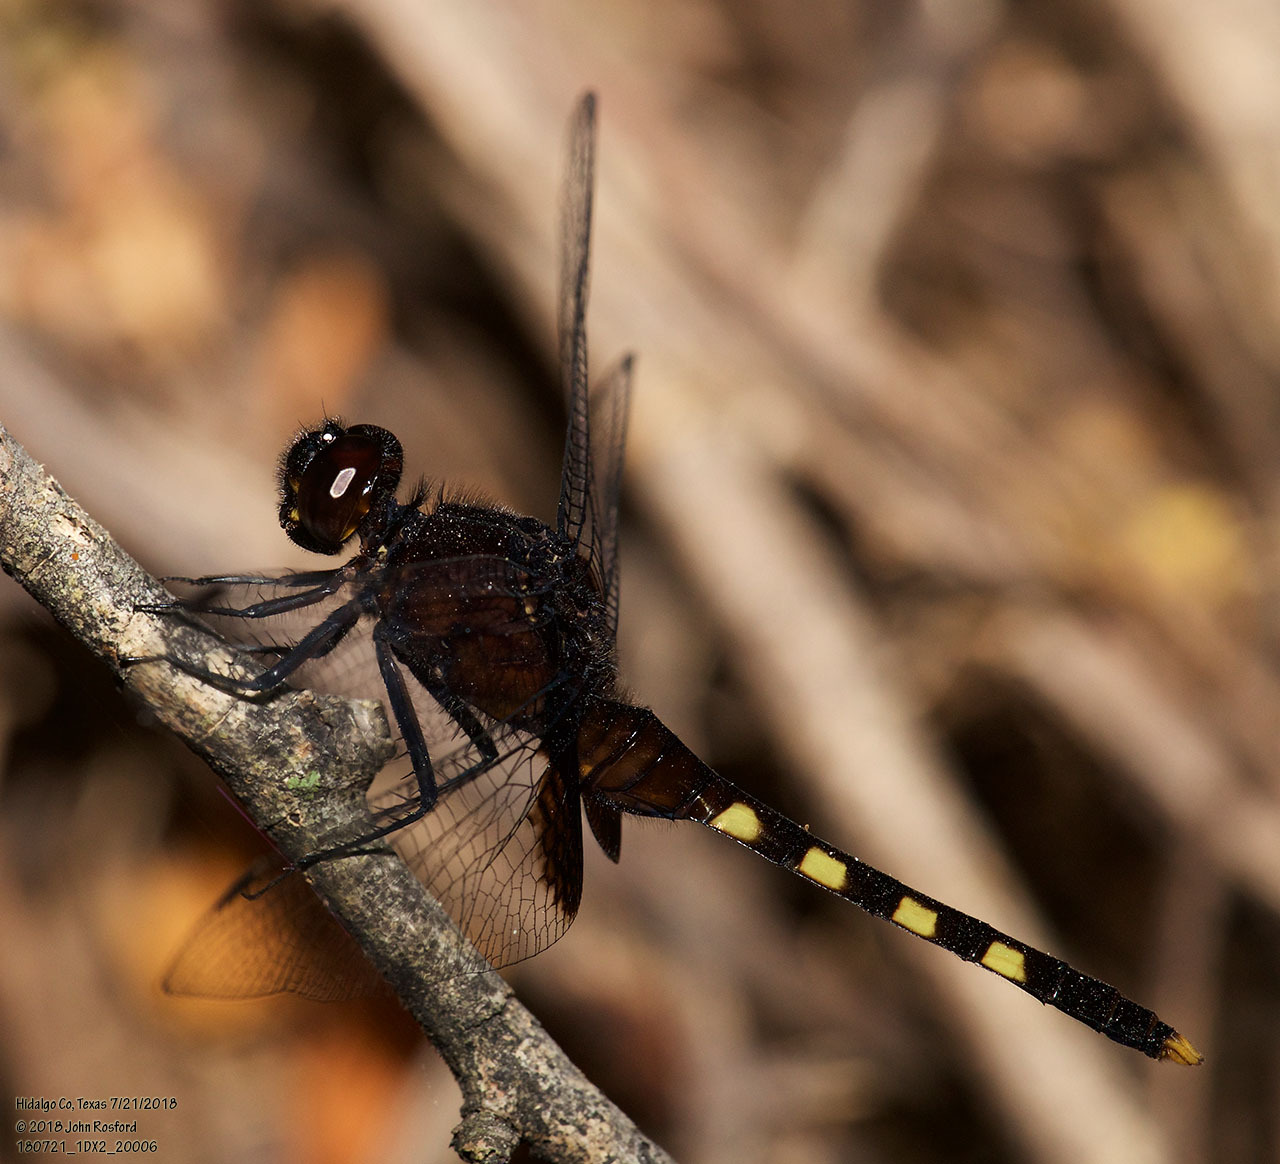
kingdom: Animalia
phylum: Arthropoda
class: Insecta
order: Odonata
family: Libellulidae
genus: Erythemis
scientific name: Erythemis attala
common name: Black pondhawk
